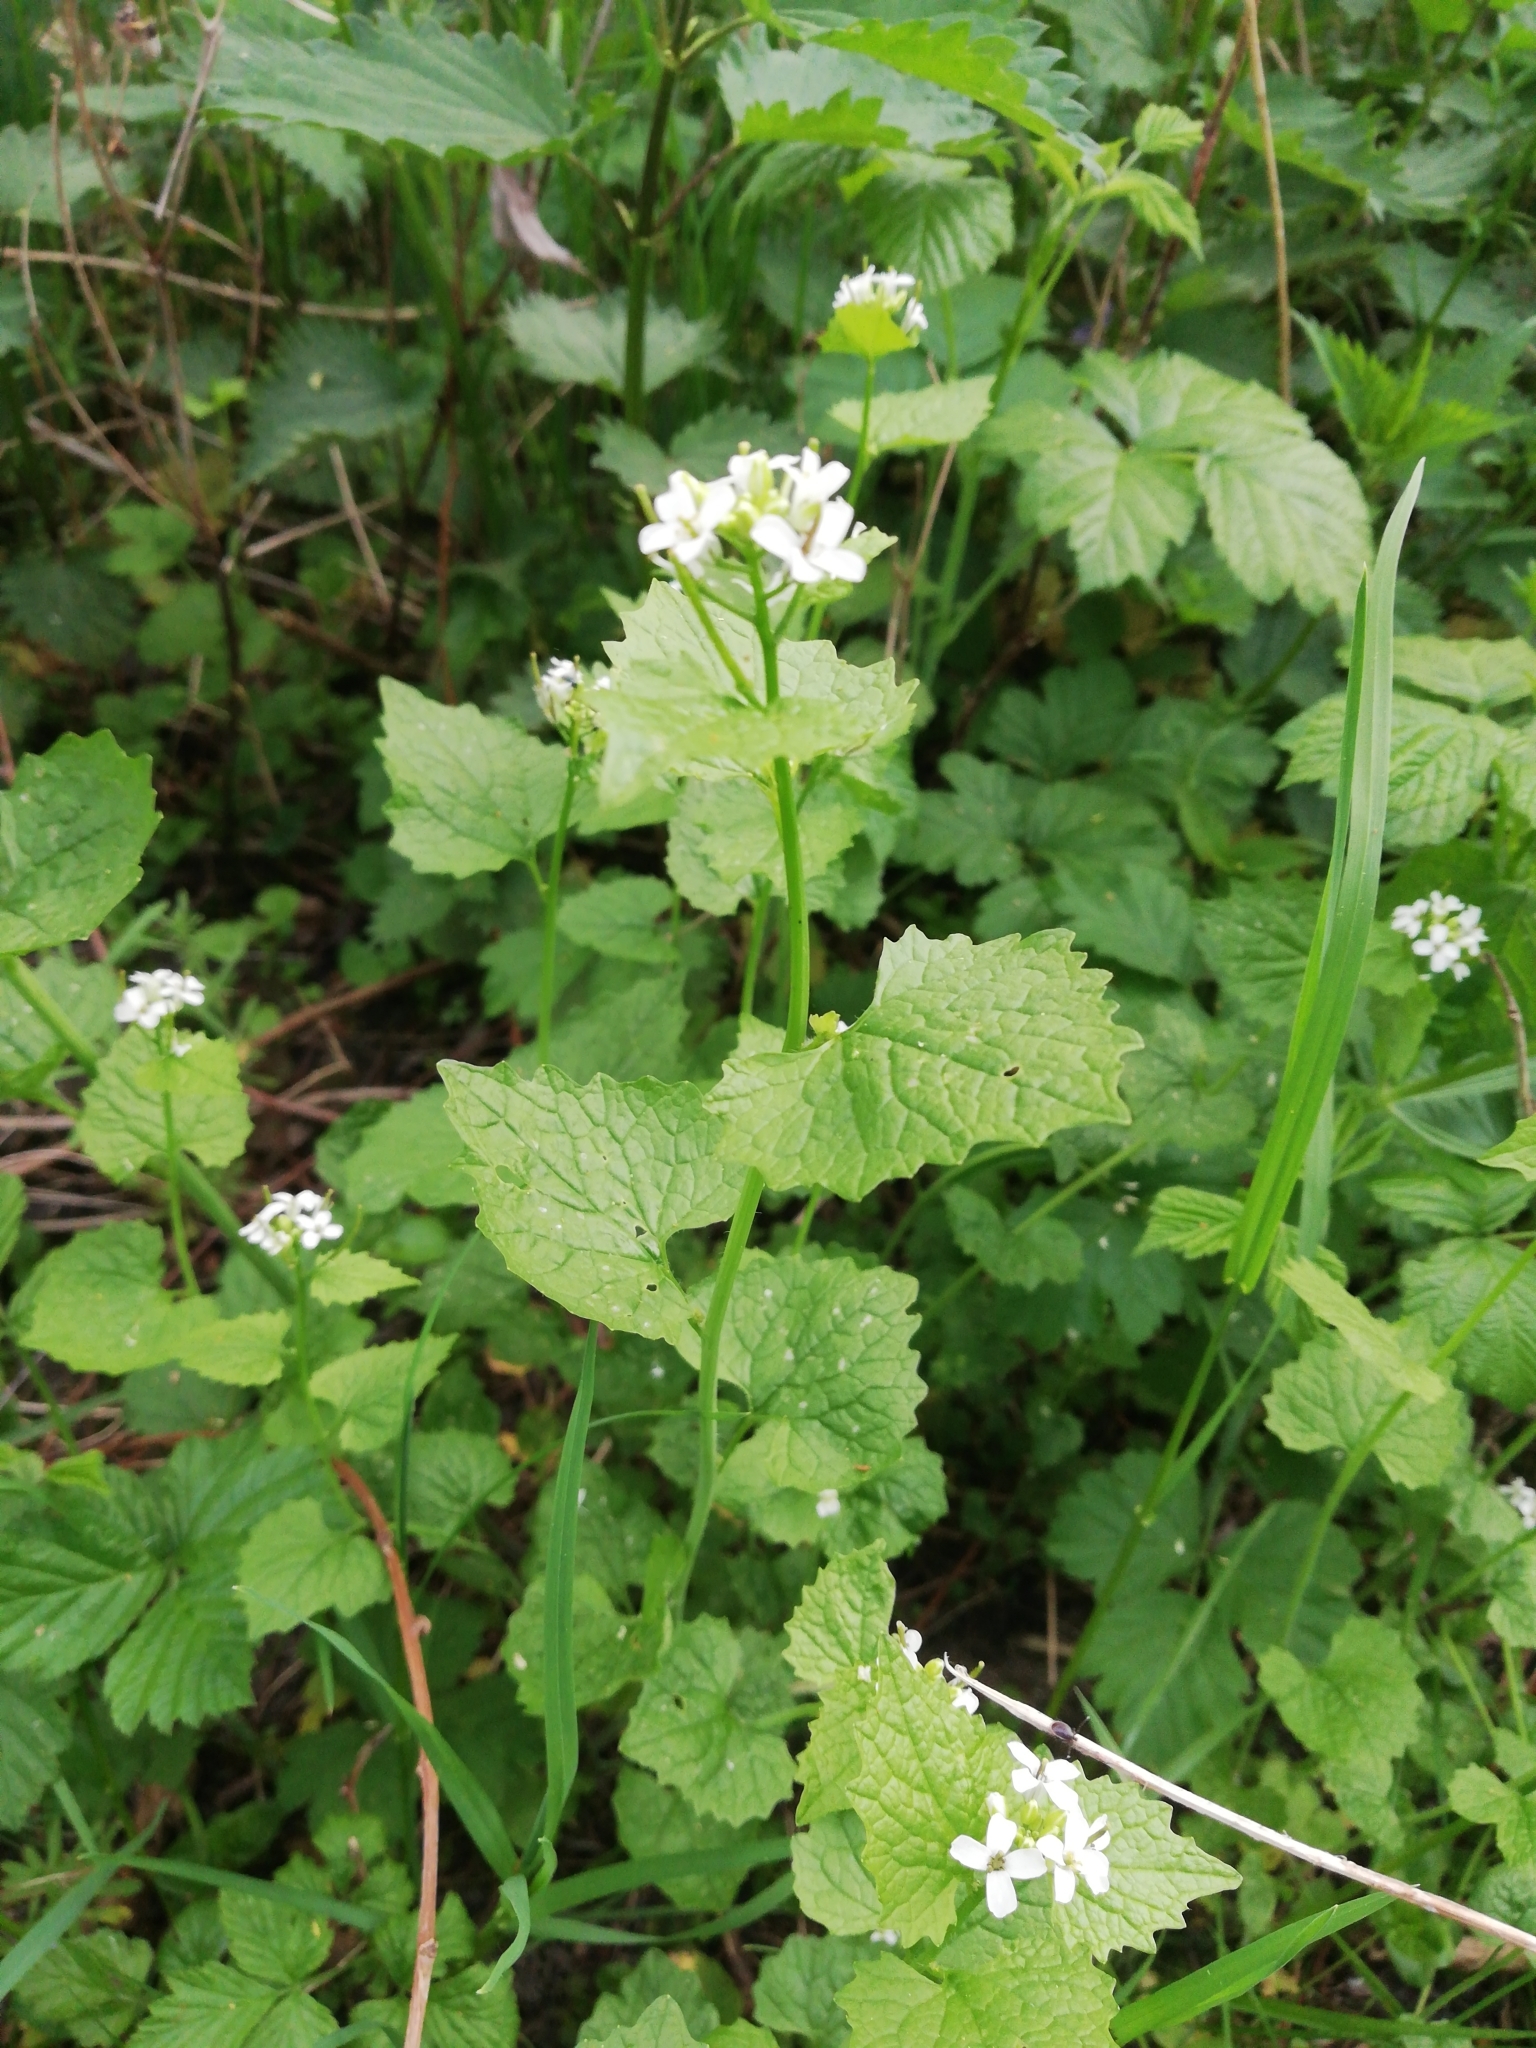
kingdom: Plantae
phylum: Tracheophyta
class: Magnoliopsida
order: Brassicales
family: Brassicaceae
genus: Alliaria
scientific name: Alliaria petiolata
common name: Garlic mustard
